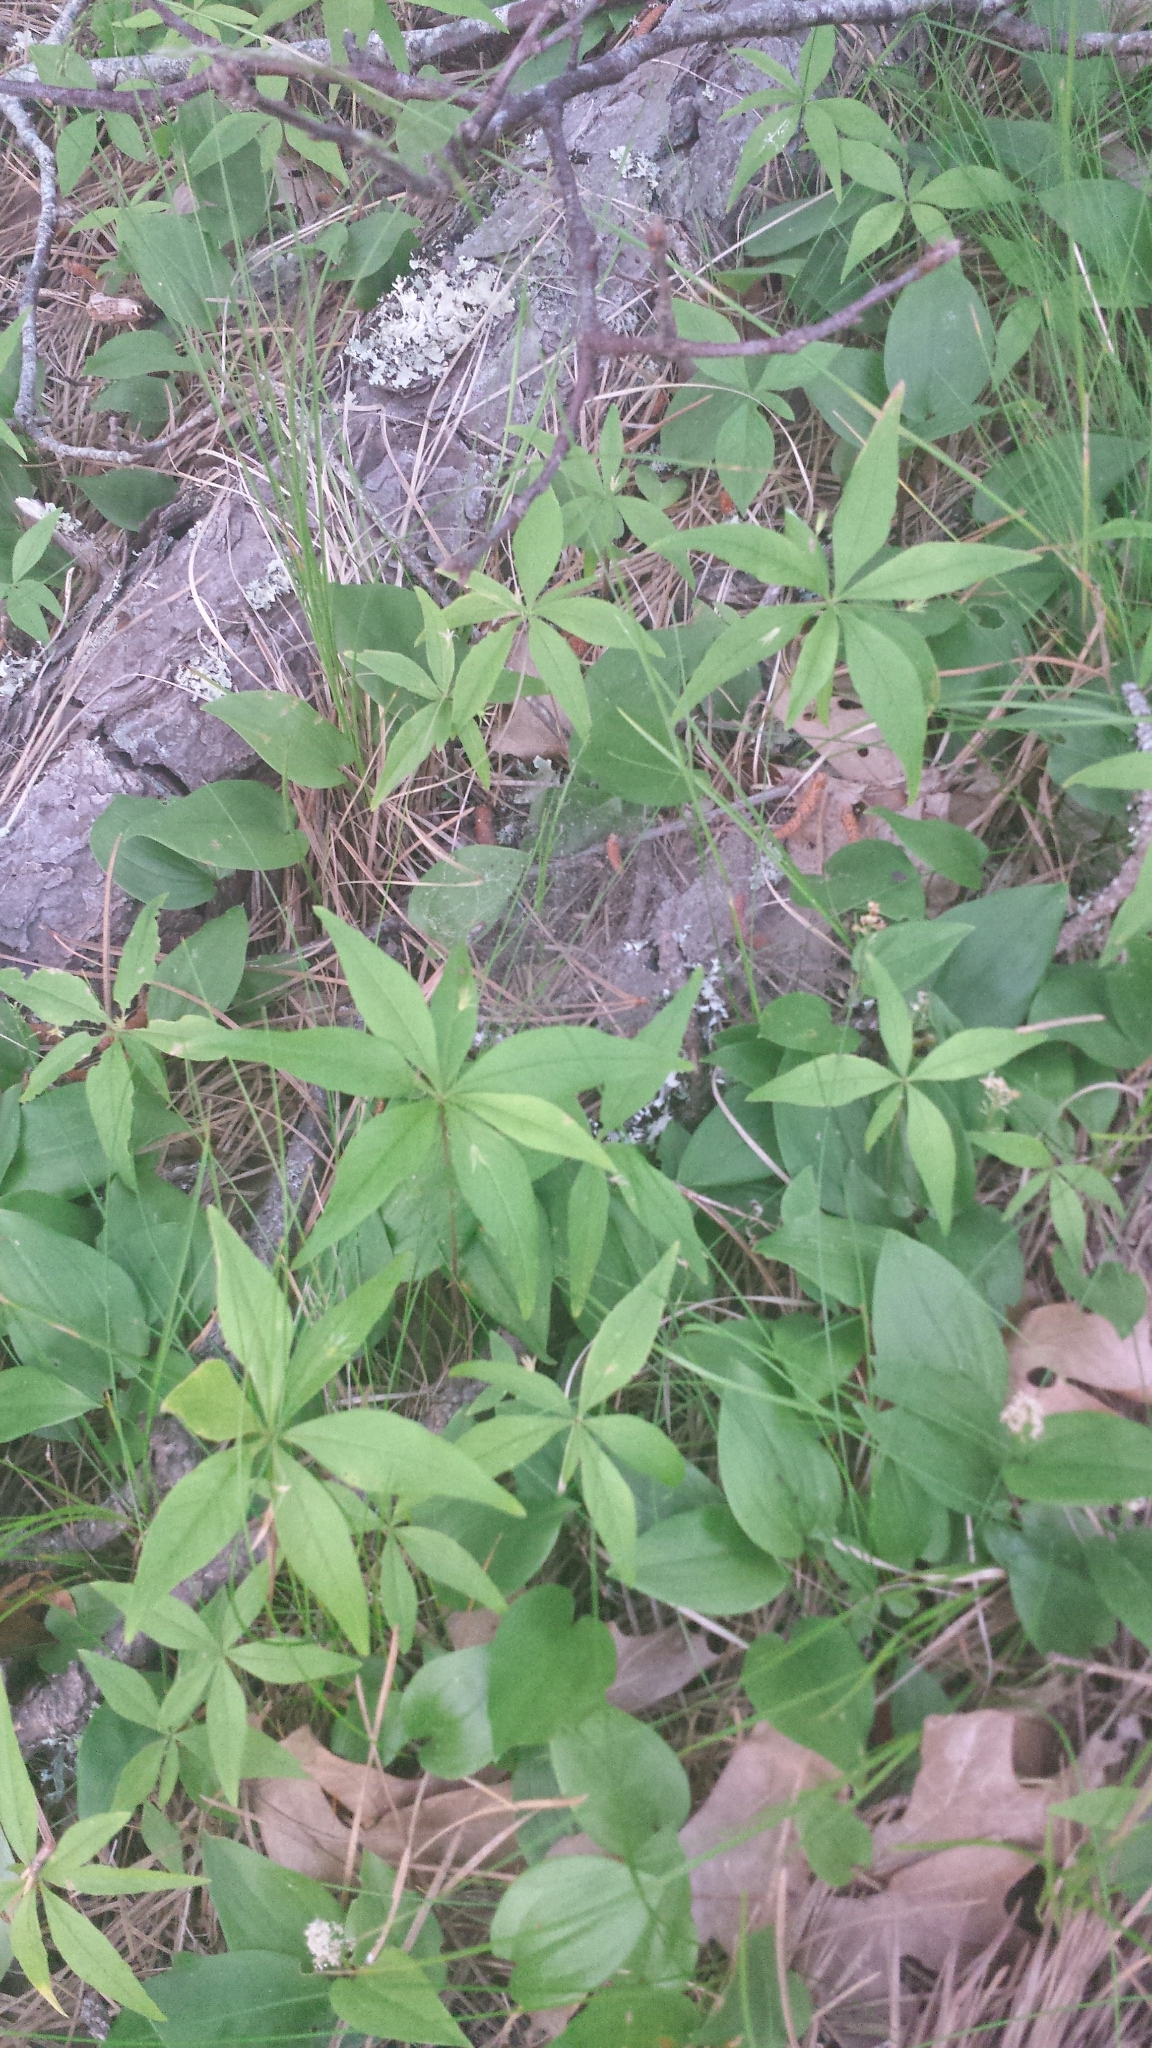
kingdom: Plantae
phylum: Tracheophyta
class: Magnoliopsida
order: Ericales
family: Primulaceae
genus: Lysimachia
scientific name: Lysimachia borealis
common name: American starflower
